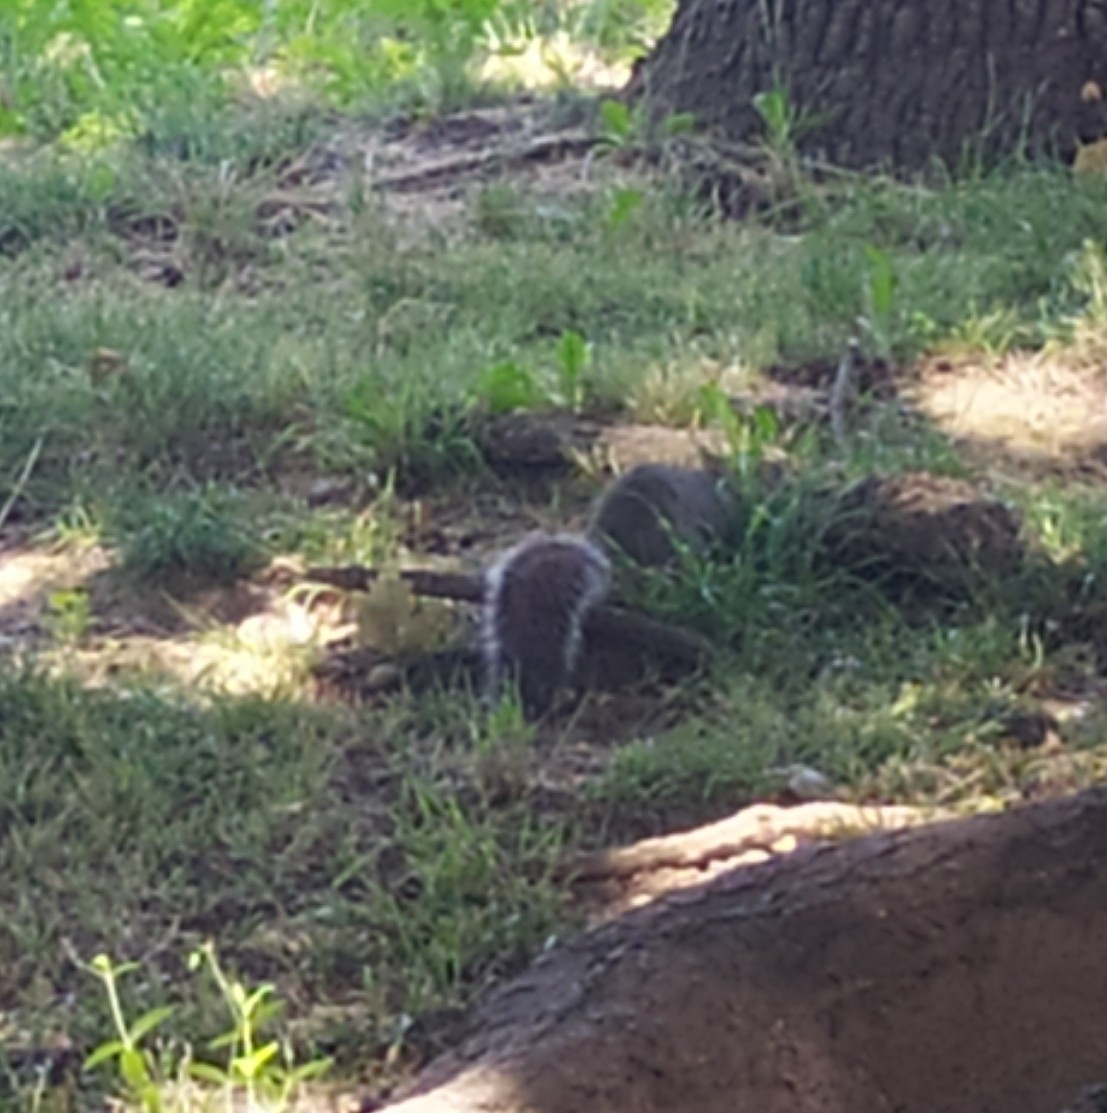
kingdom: Animalia
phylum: Chordata
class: Mammalia
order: Rodentia
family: Sciuridae
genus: Sciurus
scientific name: Sciurus carolinensis
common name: Eastern gray squirrel
